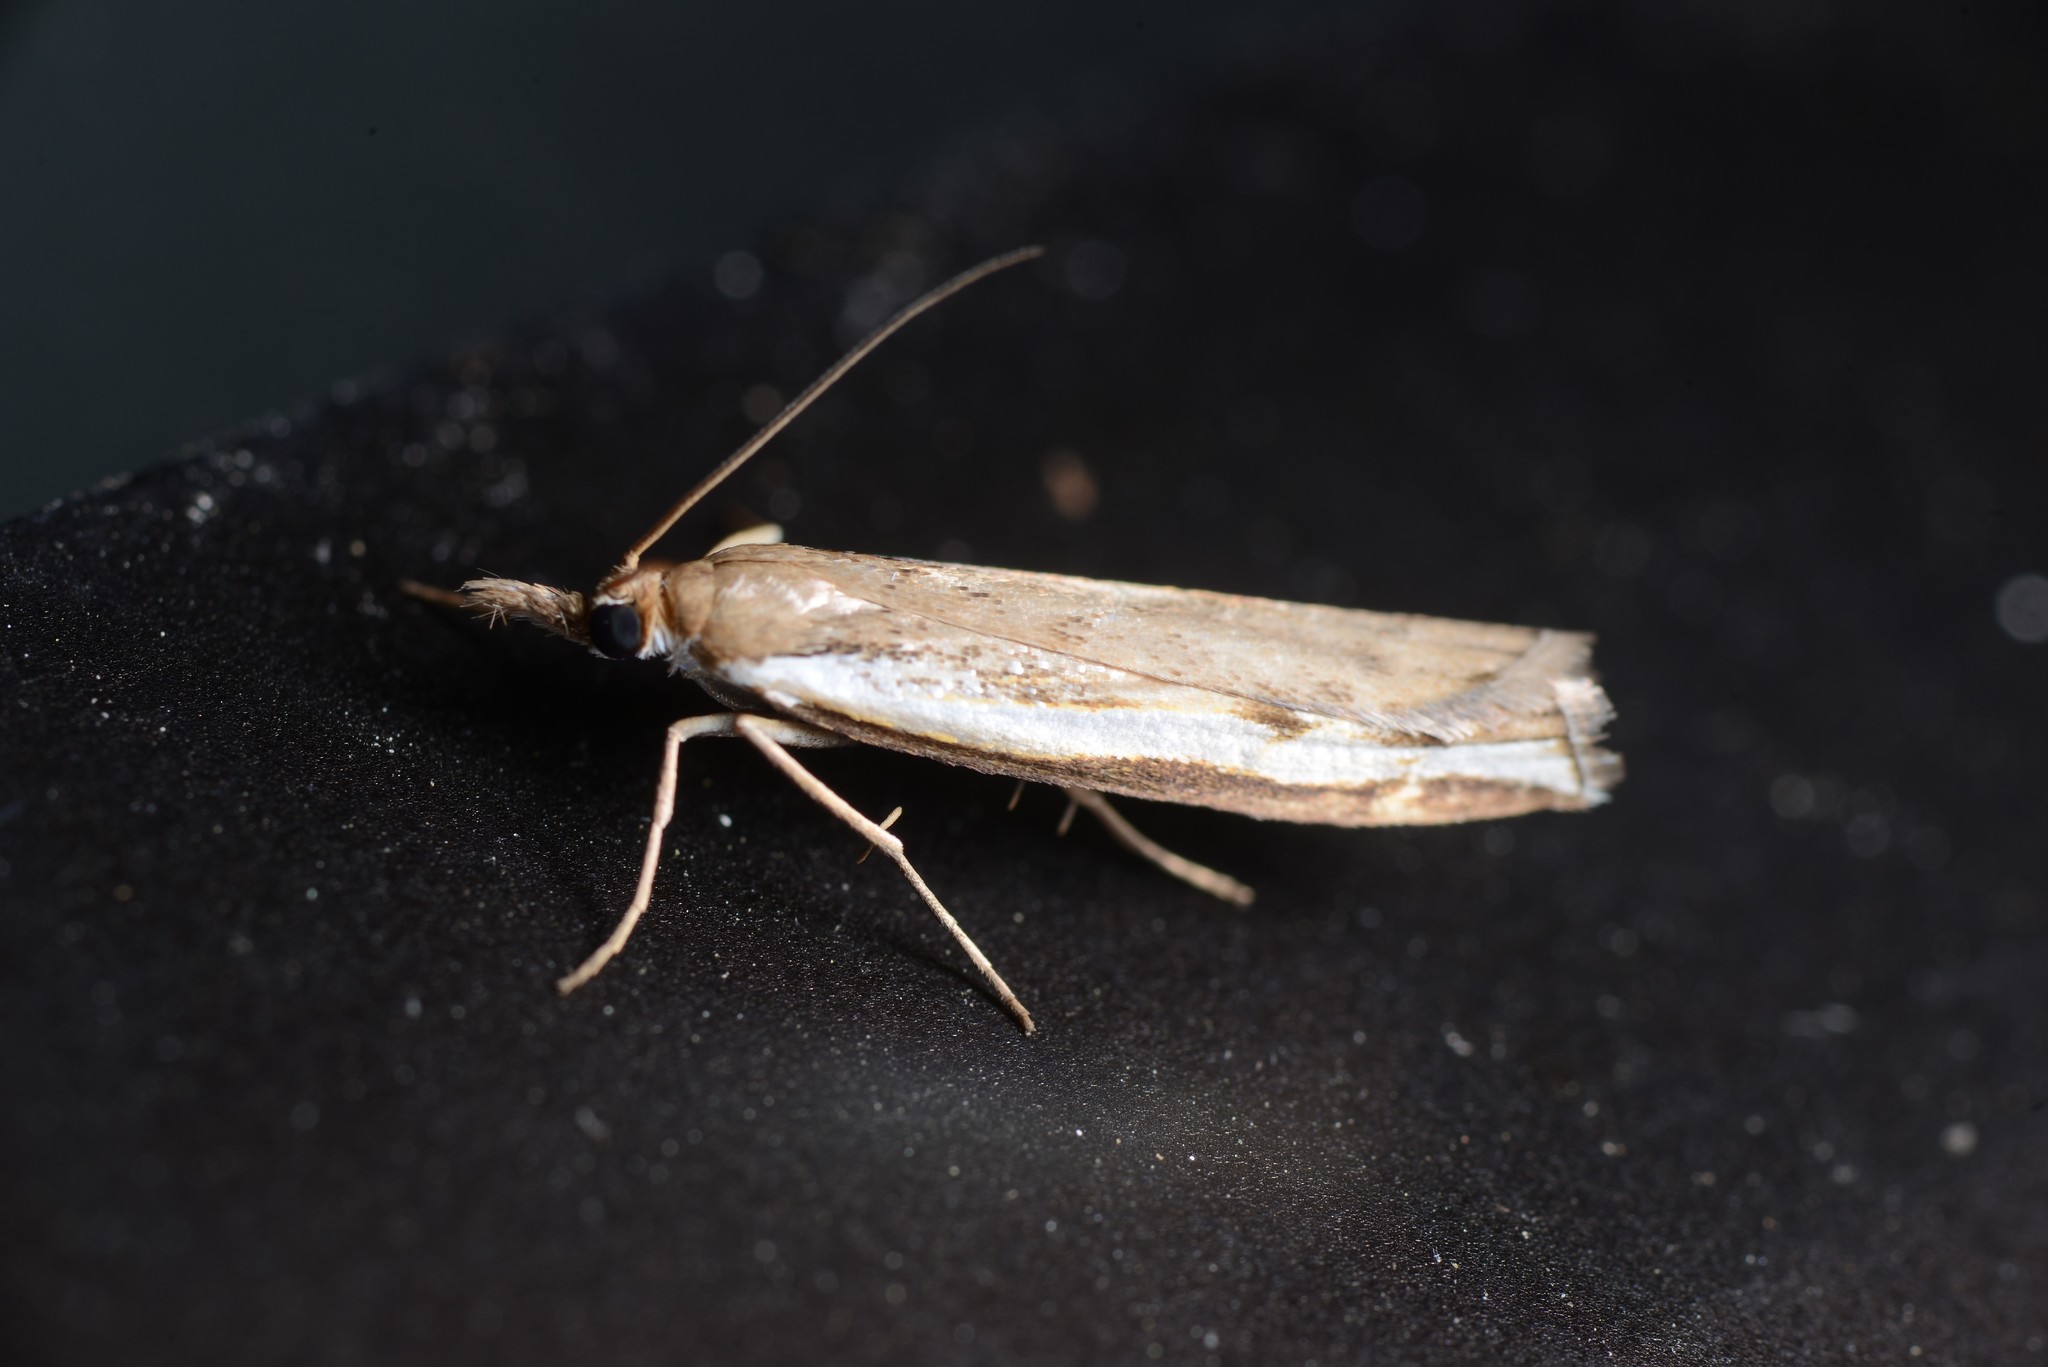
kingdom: Animalia
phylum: Arthropoda
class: Insecta
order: Lepidoptera
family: Crambidae
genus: Orocrambus
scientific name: Orocrambus flexuosellus
